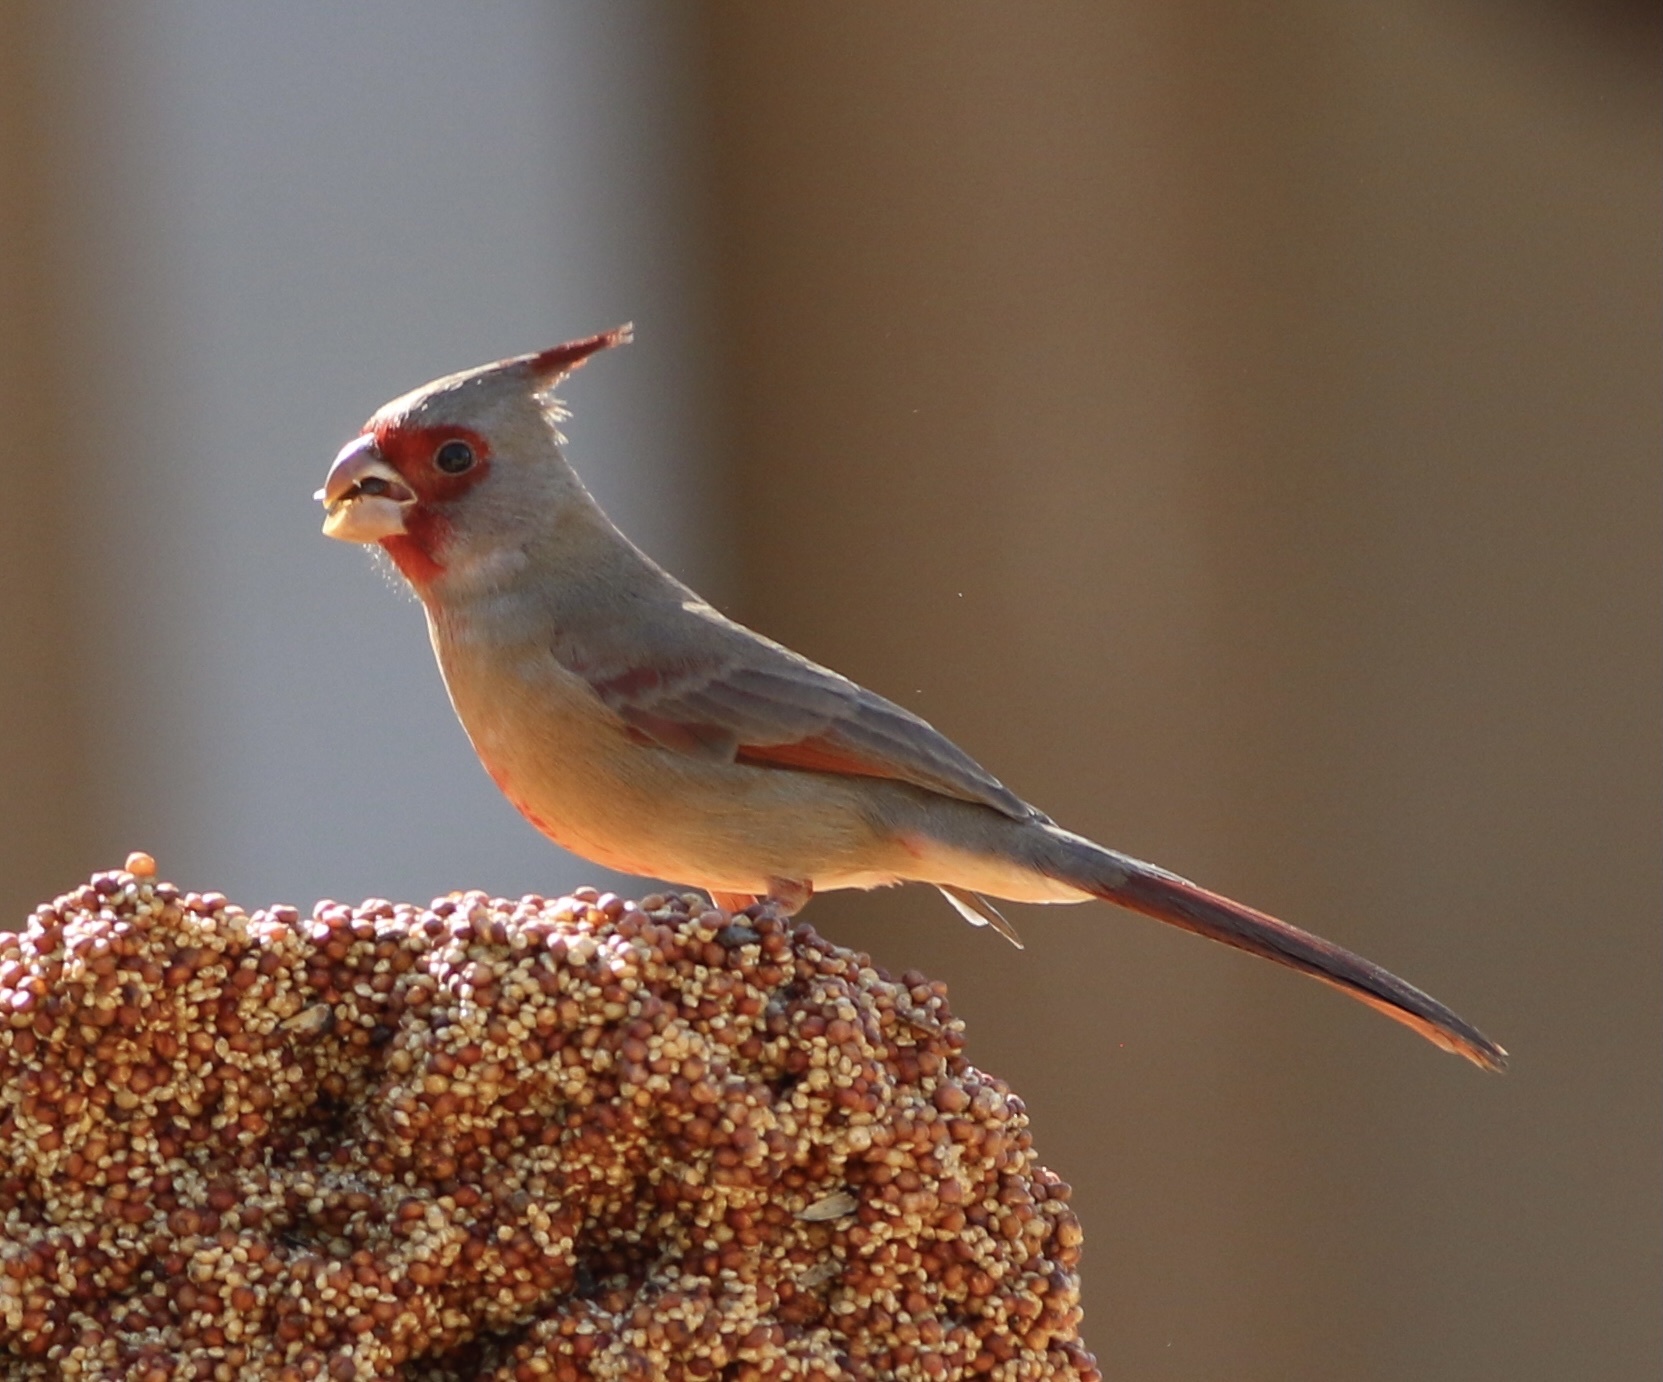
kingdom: Animalia
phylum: Chordata
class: Aves
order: Passeriformes
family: Cardinalidae
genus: Cardinalis
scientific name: Cardinalis sinuatus
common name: Pyrrhuloxia
